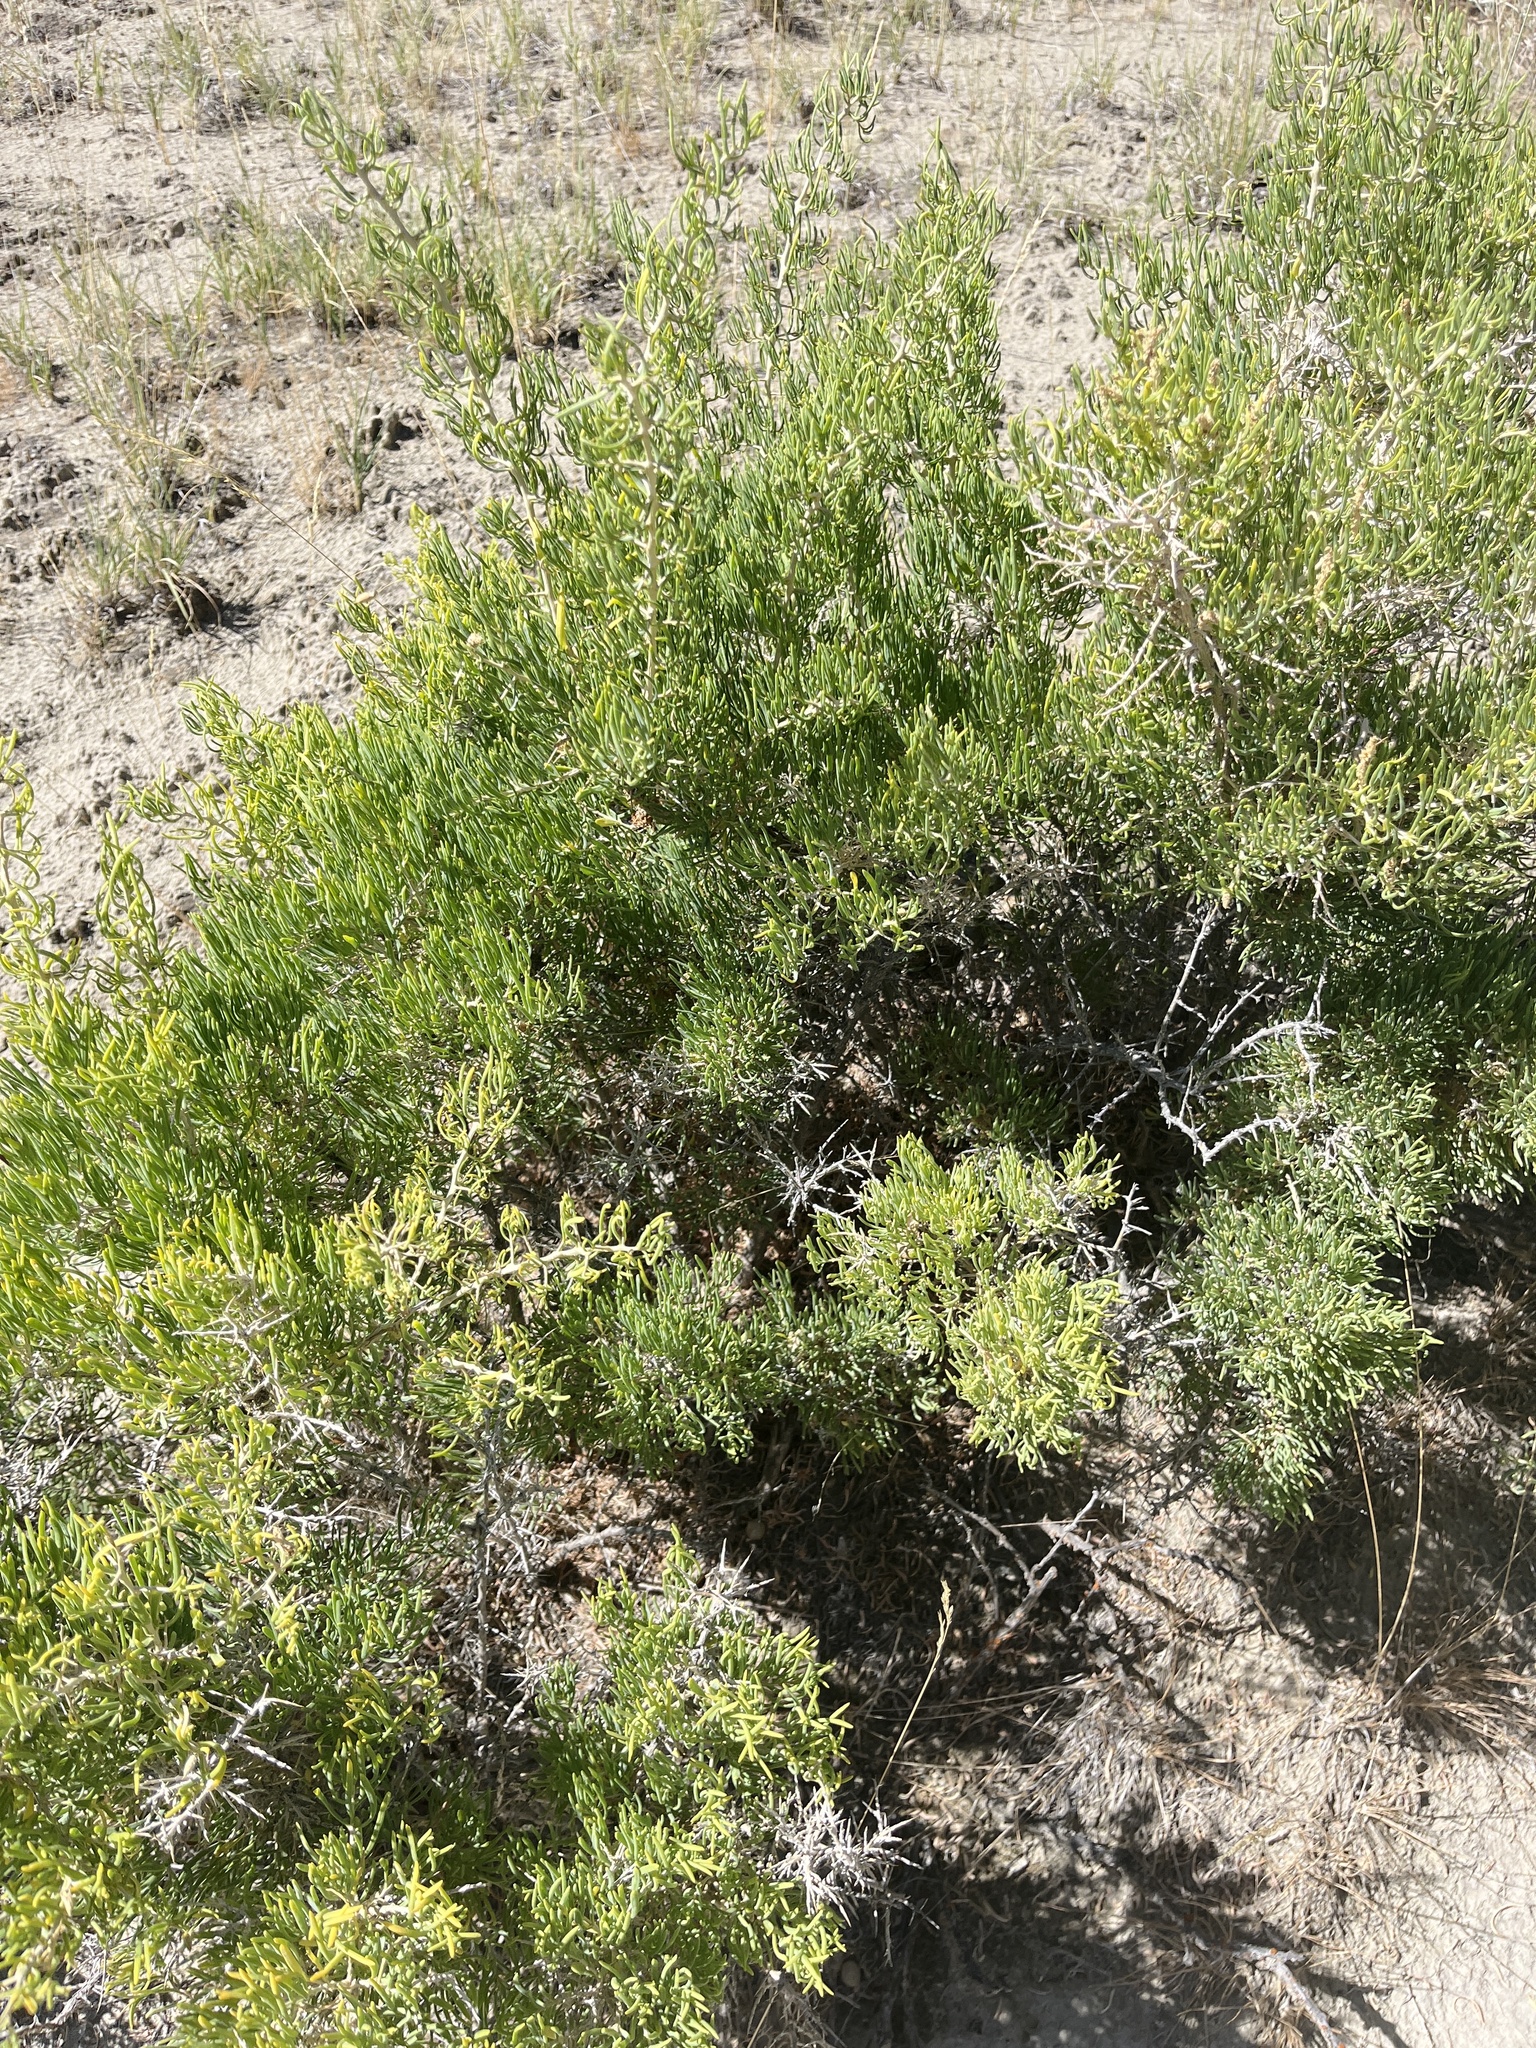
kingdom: Plantae
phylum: Tracheophyta
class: Magnoliopsida
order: Caryophyllales
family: Sarcobataceae
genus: Sarcobatus
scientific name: Sarcobatus vermiculatus
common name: Greasewood
